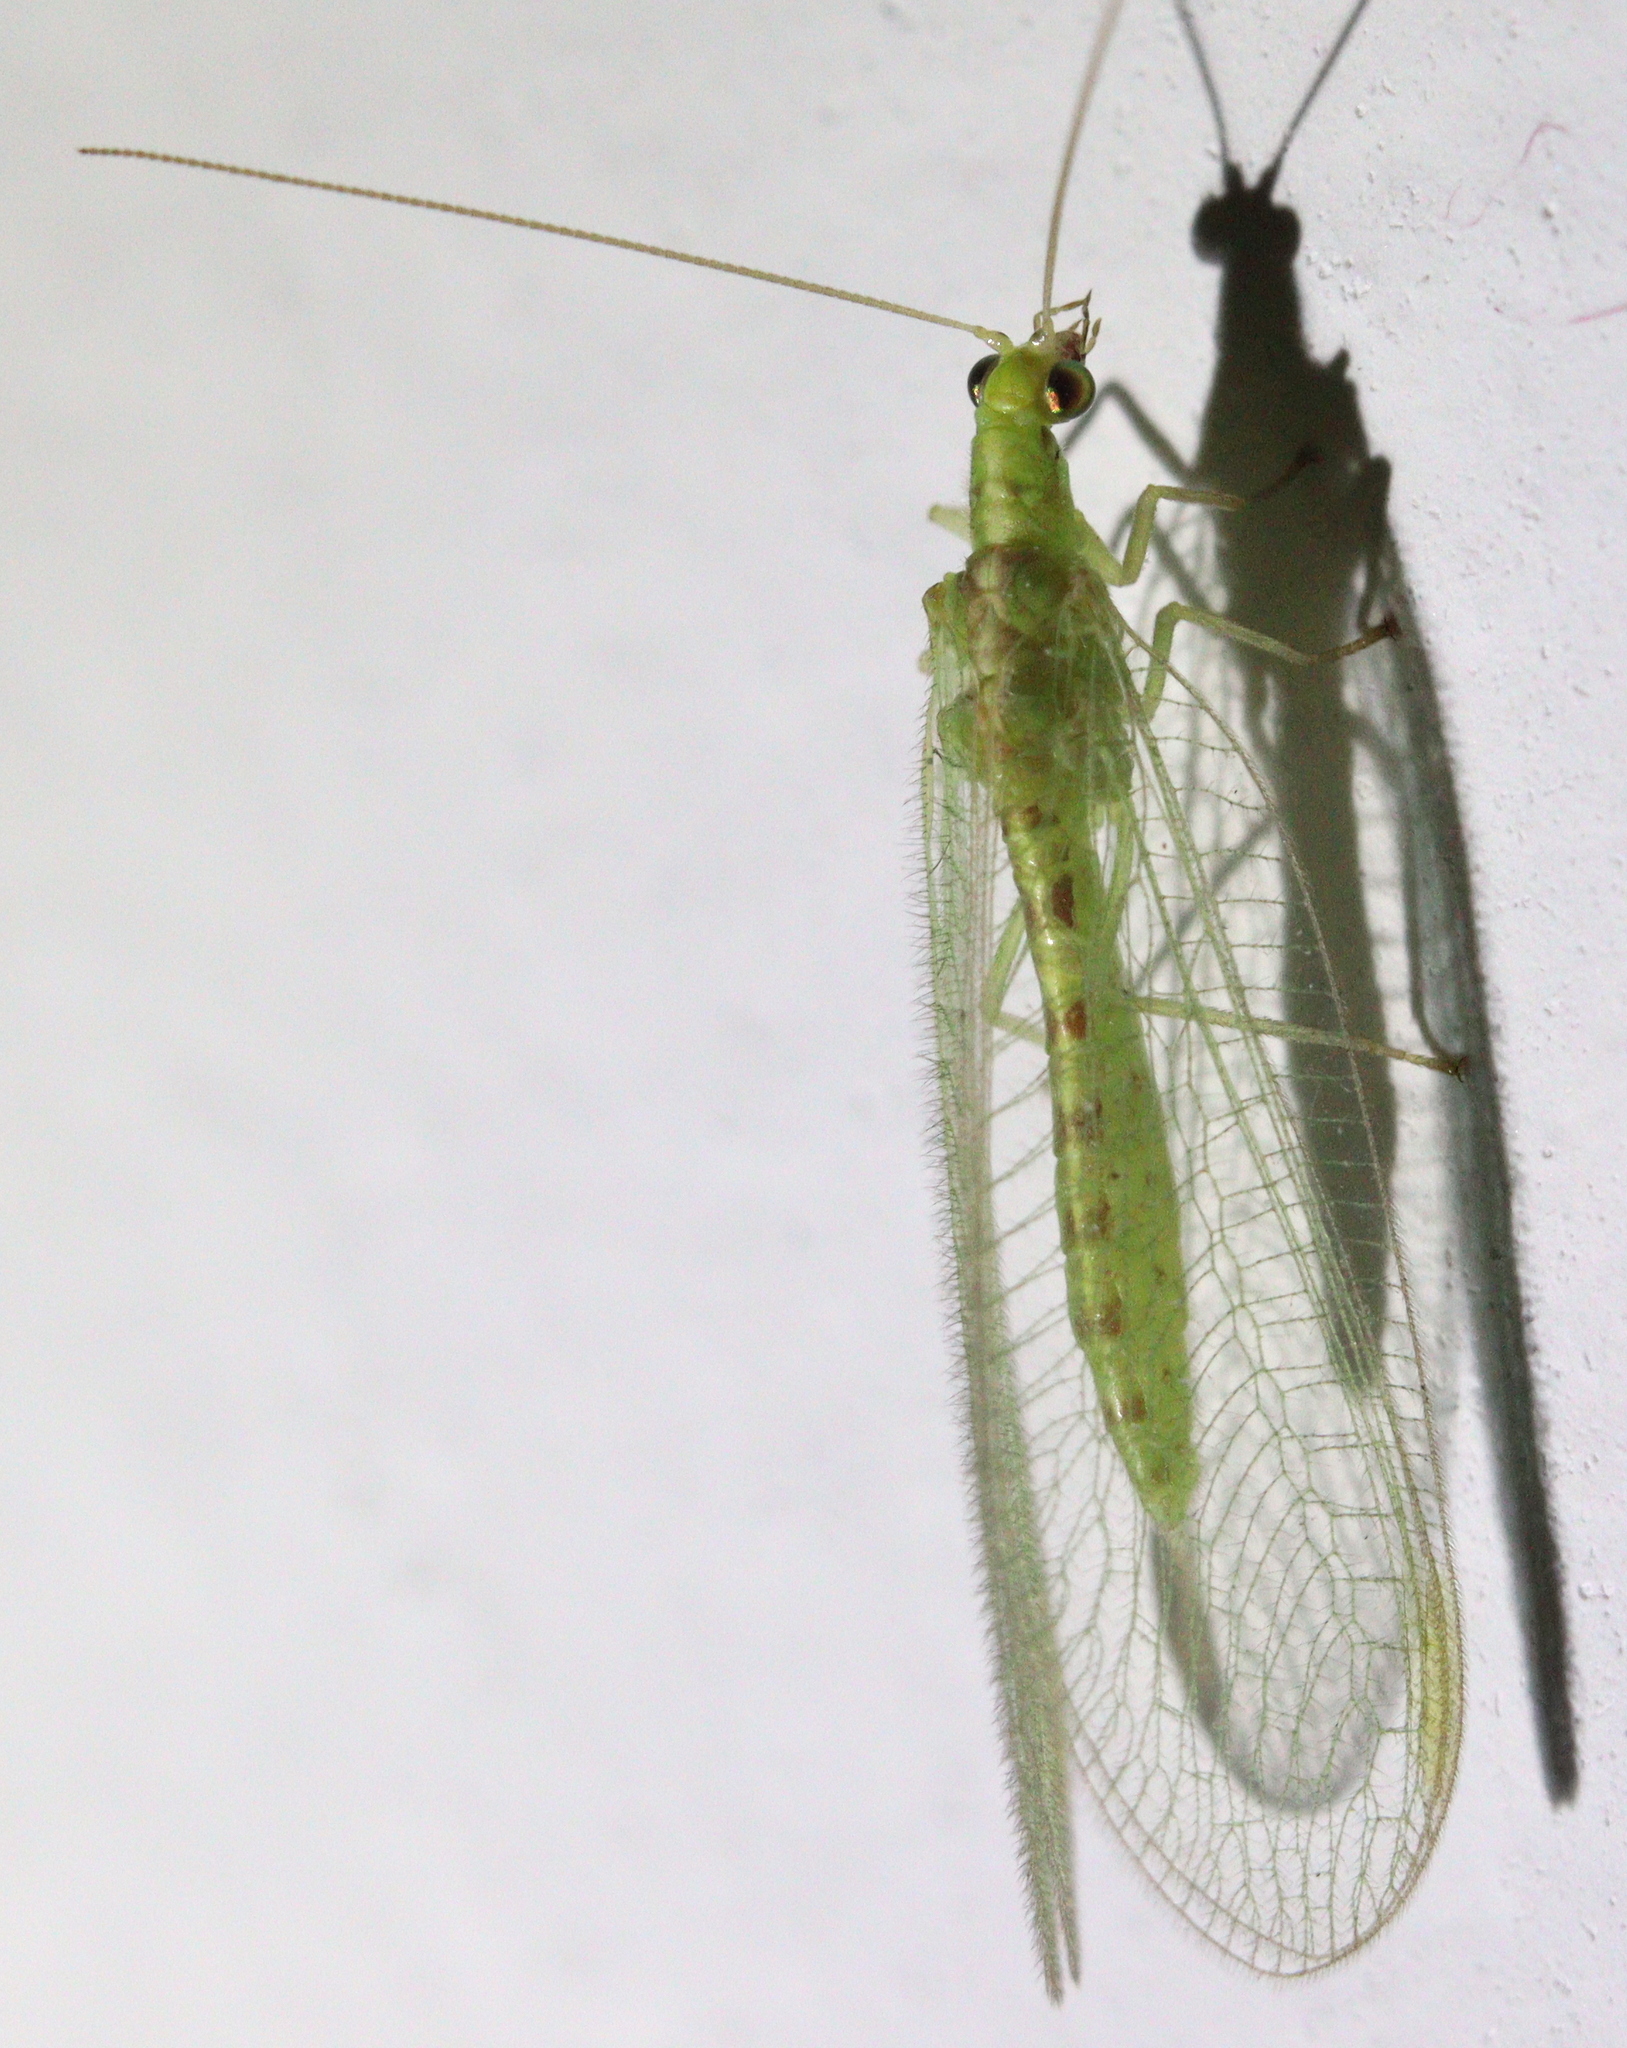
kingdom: Animalia
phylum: Arthropoda
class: Insecta
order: Neuroptera
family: Chrysopidae
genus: Chrysoperla
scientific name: Chrysoperla
